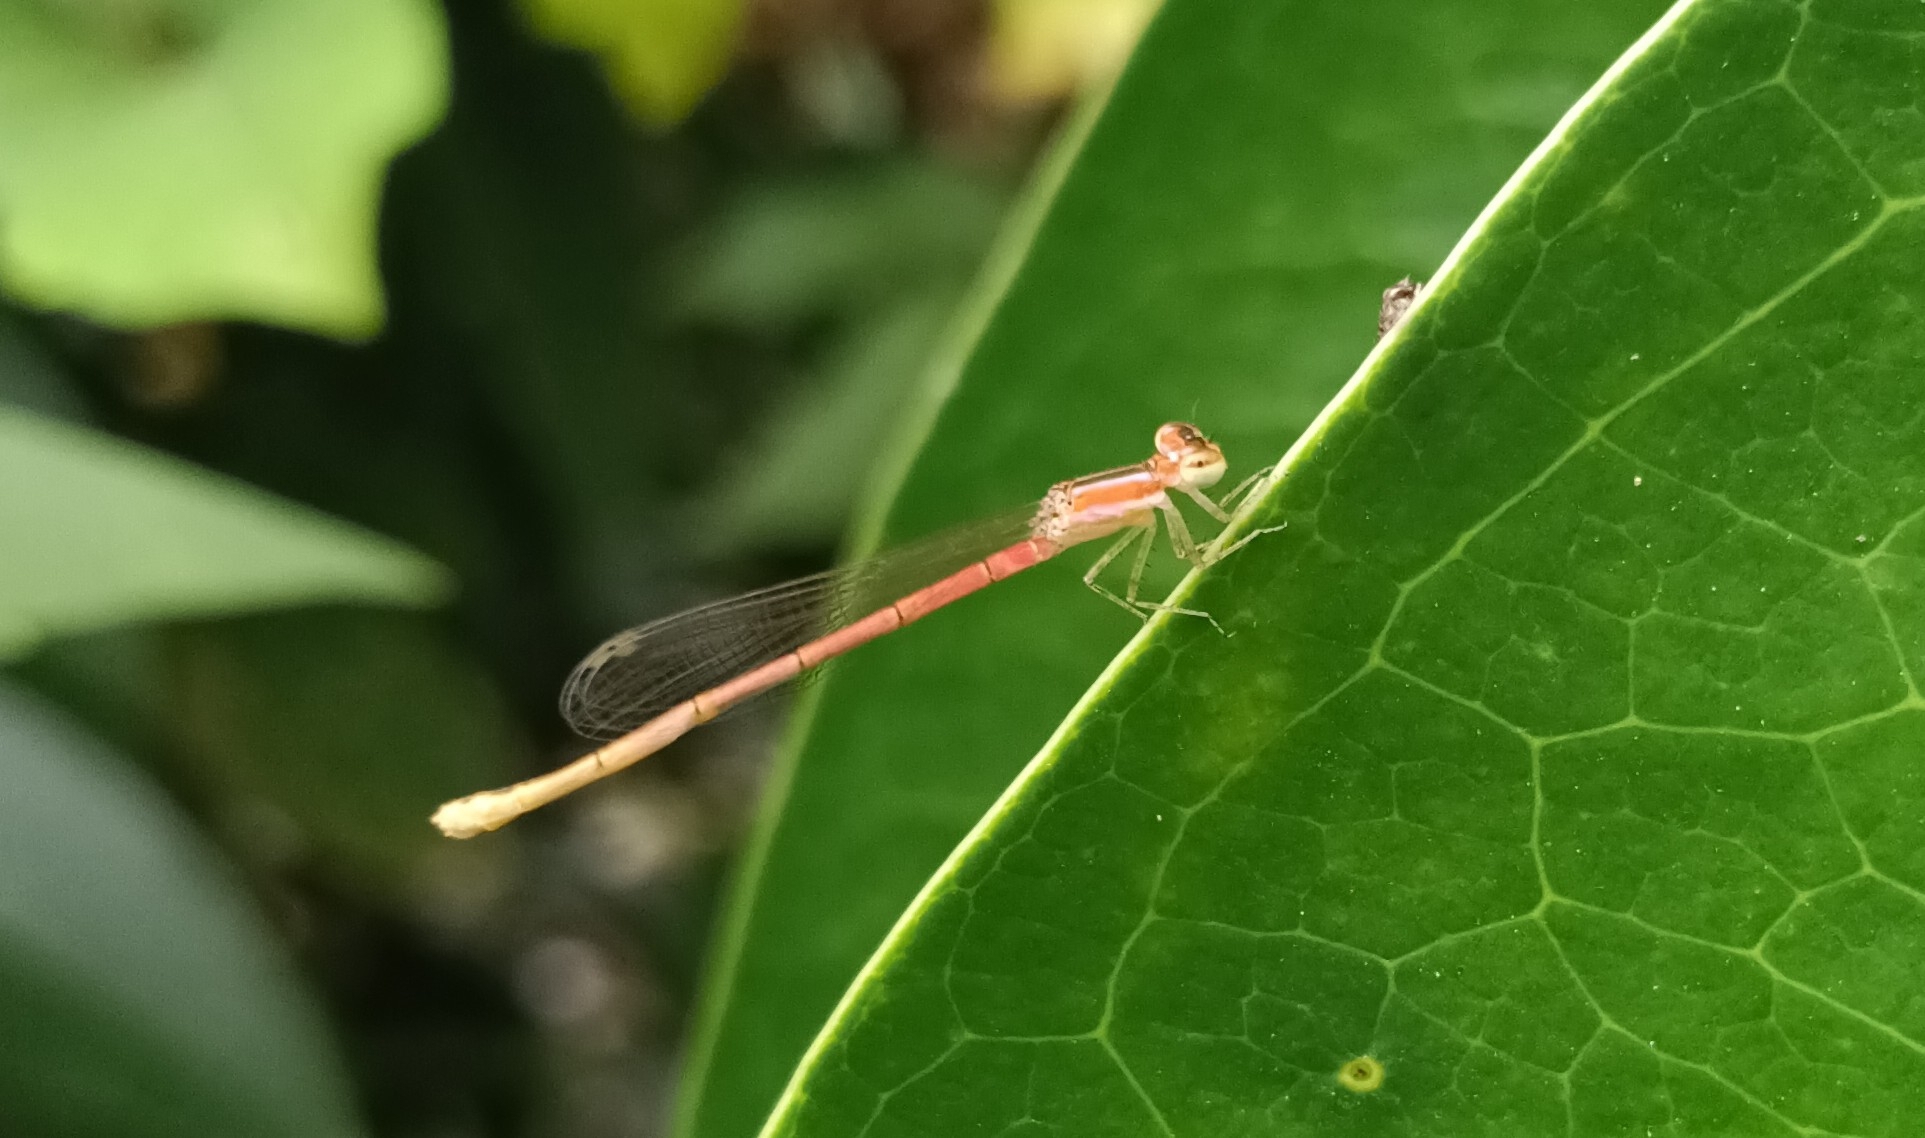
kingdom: Animalia
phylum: Arthropoda
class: Insecta
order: Odonata
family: Coenagrionidae
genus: Agriocnemis
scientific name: Agriocnemis pygmaea
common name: Pygmy wisp
